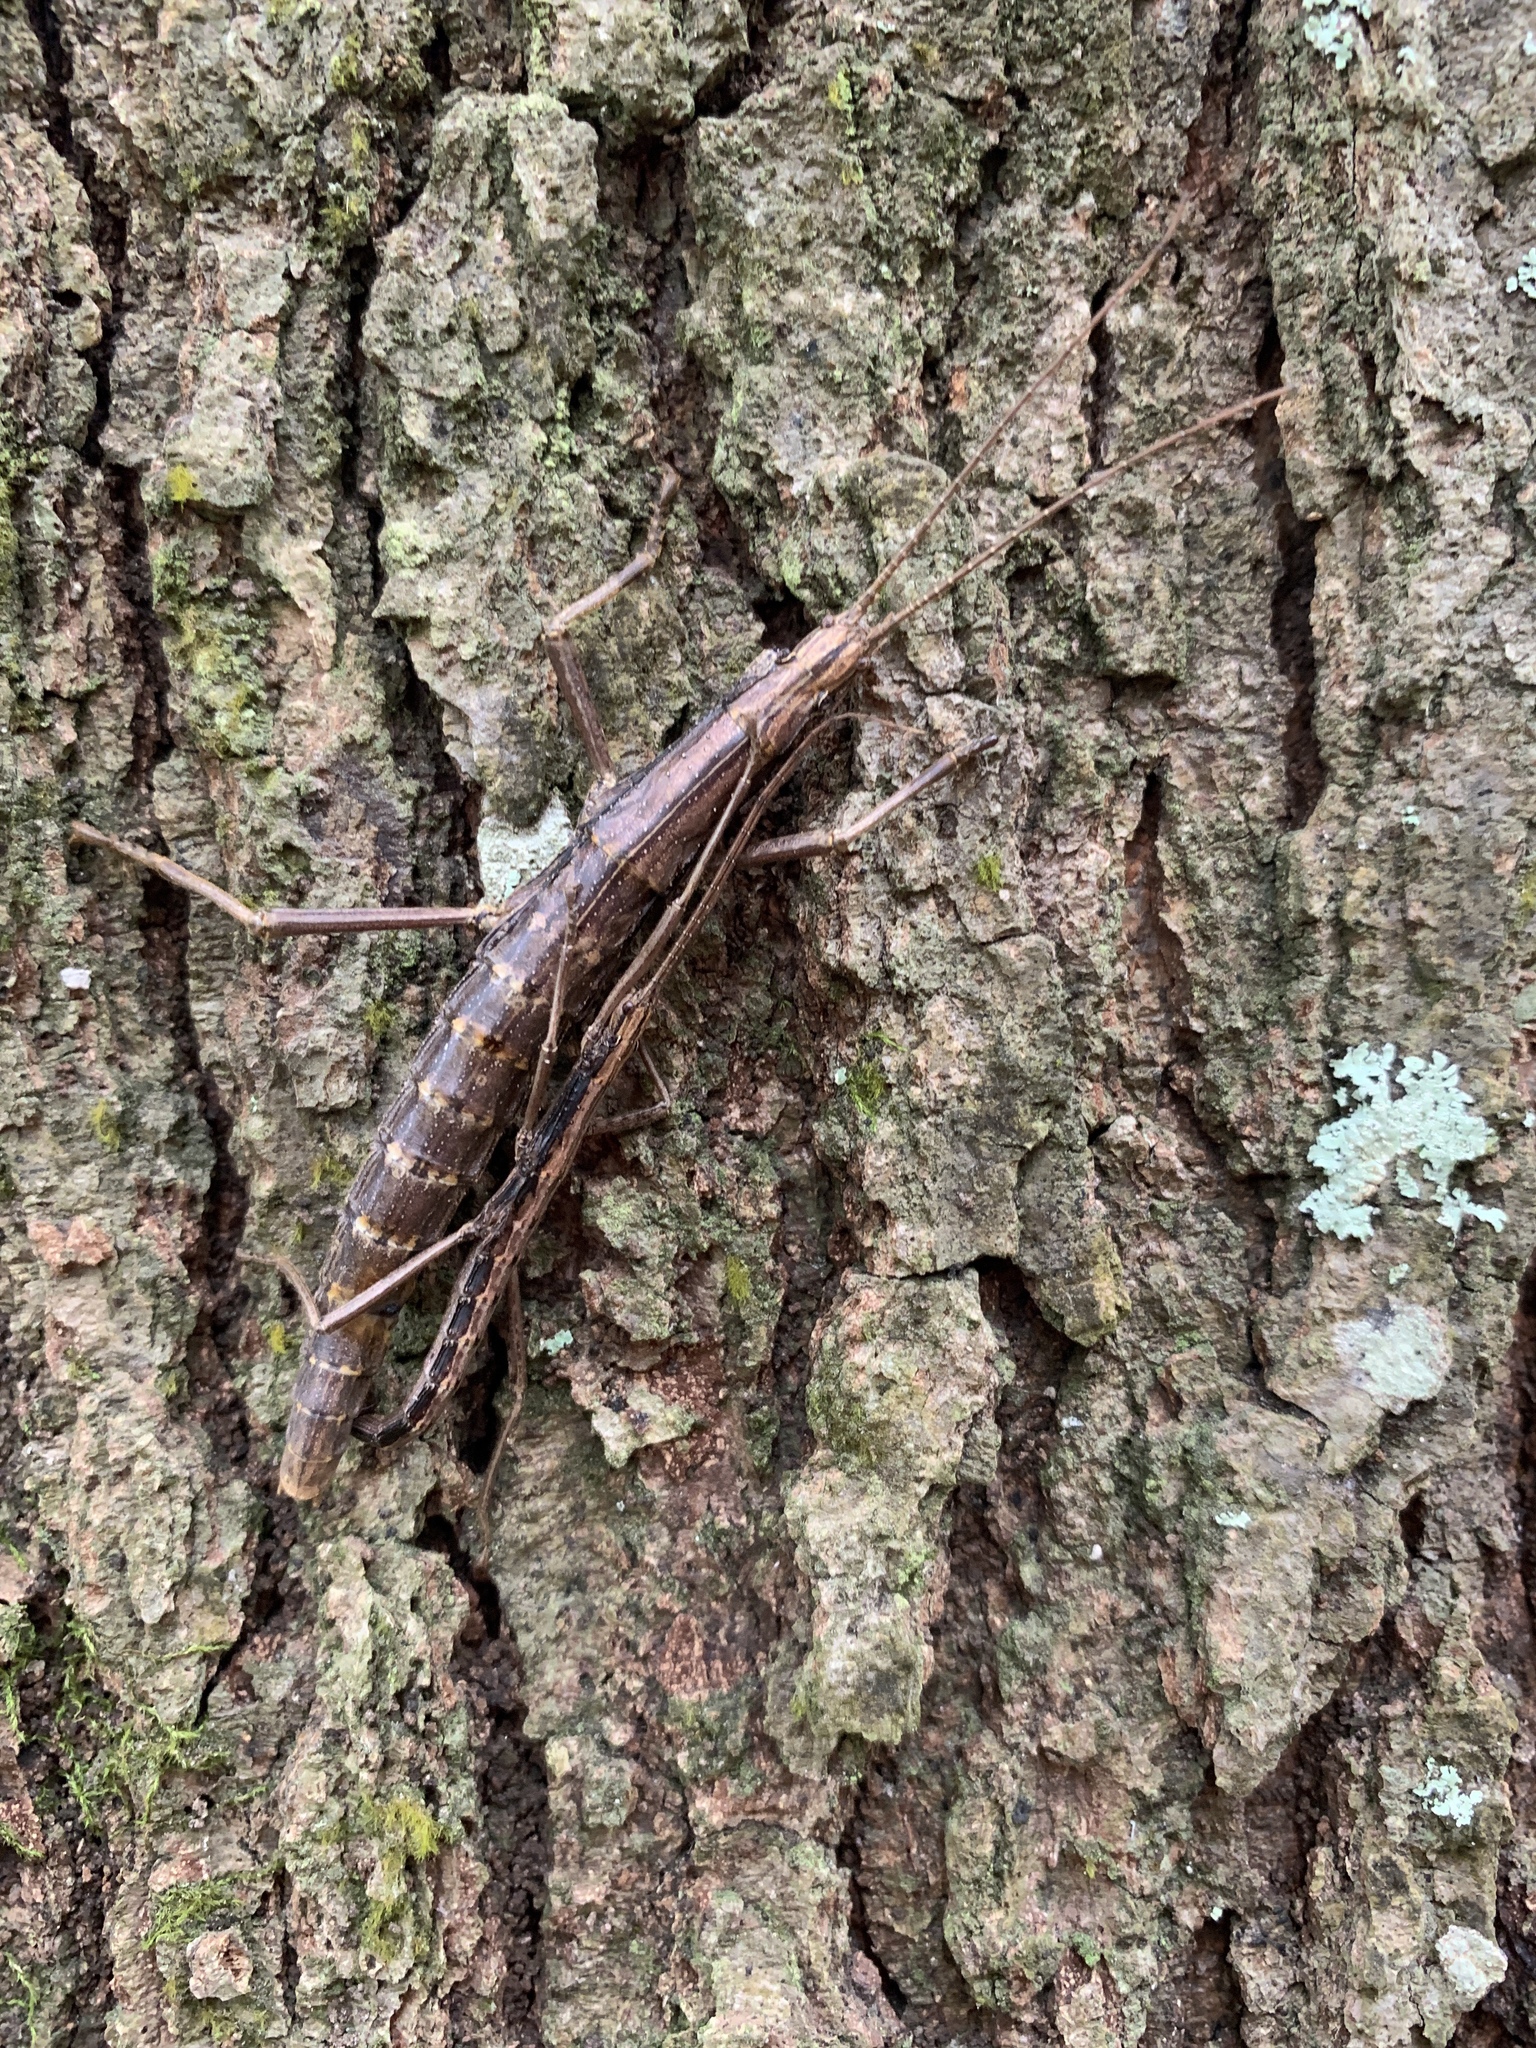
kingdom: Animalia
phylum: Arthropoda
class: Insecta
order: Phasmida
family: Pseudophasmatidae
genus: Anisomorpha
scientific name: Anisomorpha buprestoides
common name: Florida stick insect
